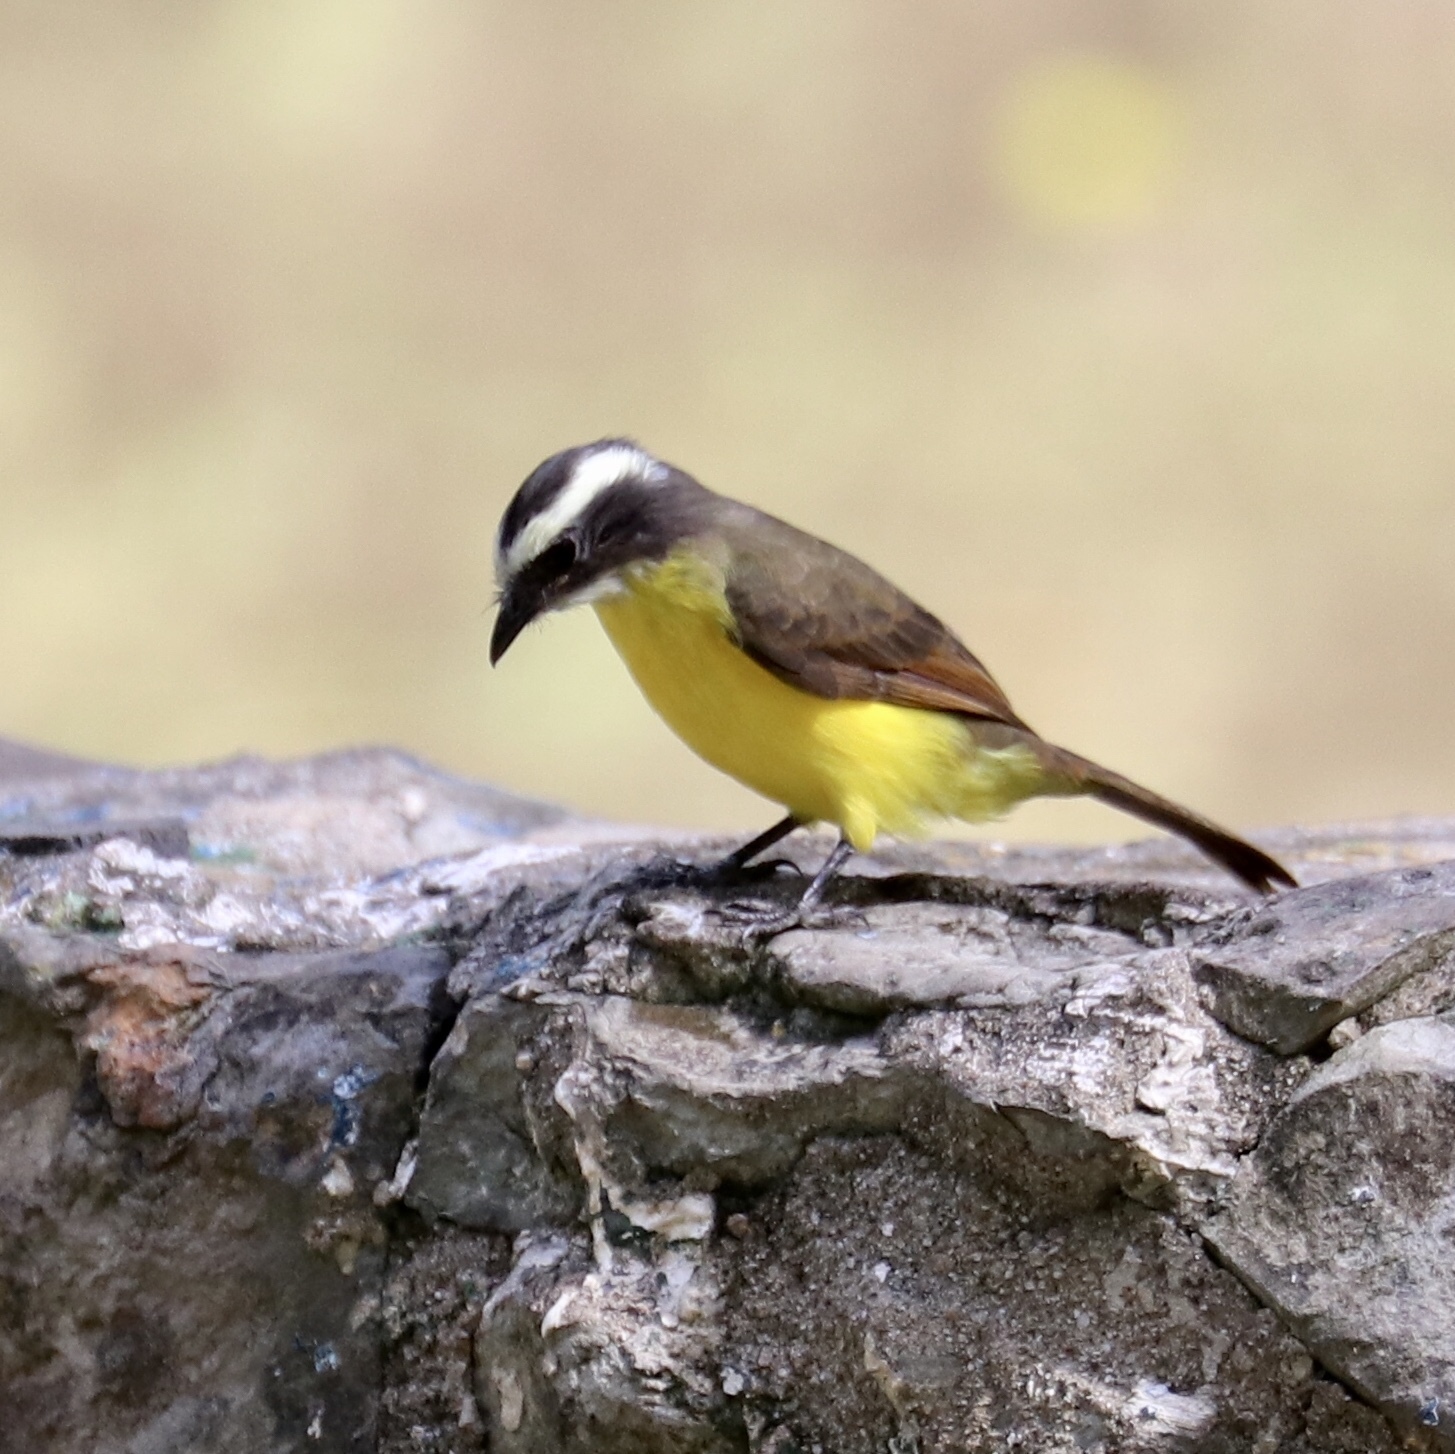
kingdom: Animalia
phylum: Chordata
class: Aves
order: Passeriformes
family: Tyrannidae
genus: Myiozetetes
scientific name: Myiozetetes cayanensis
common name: Rusty-margined flycatcher
